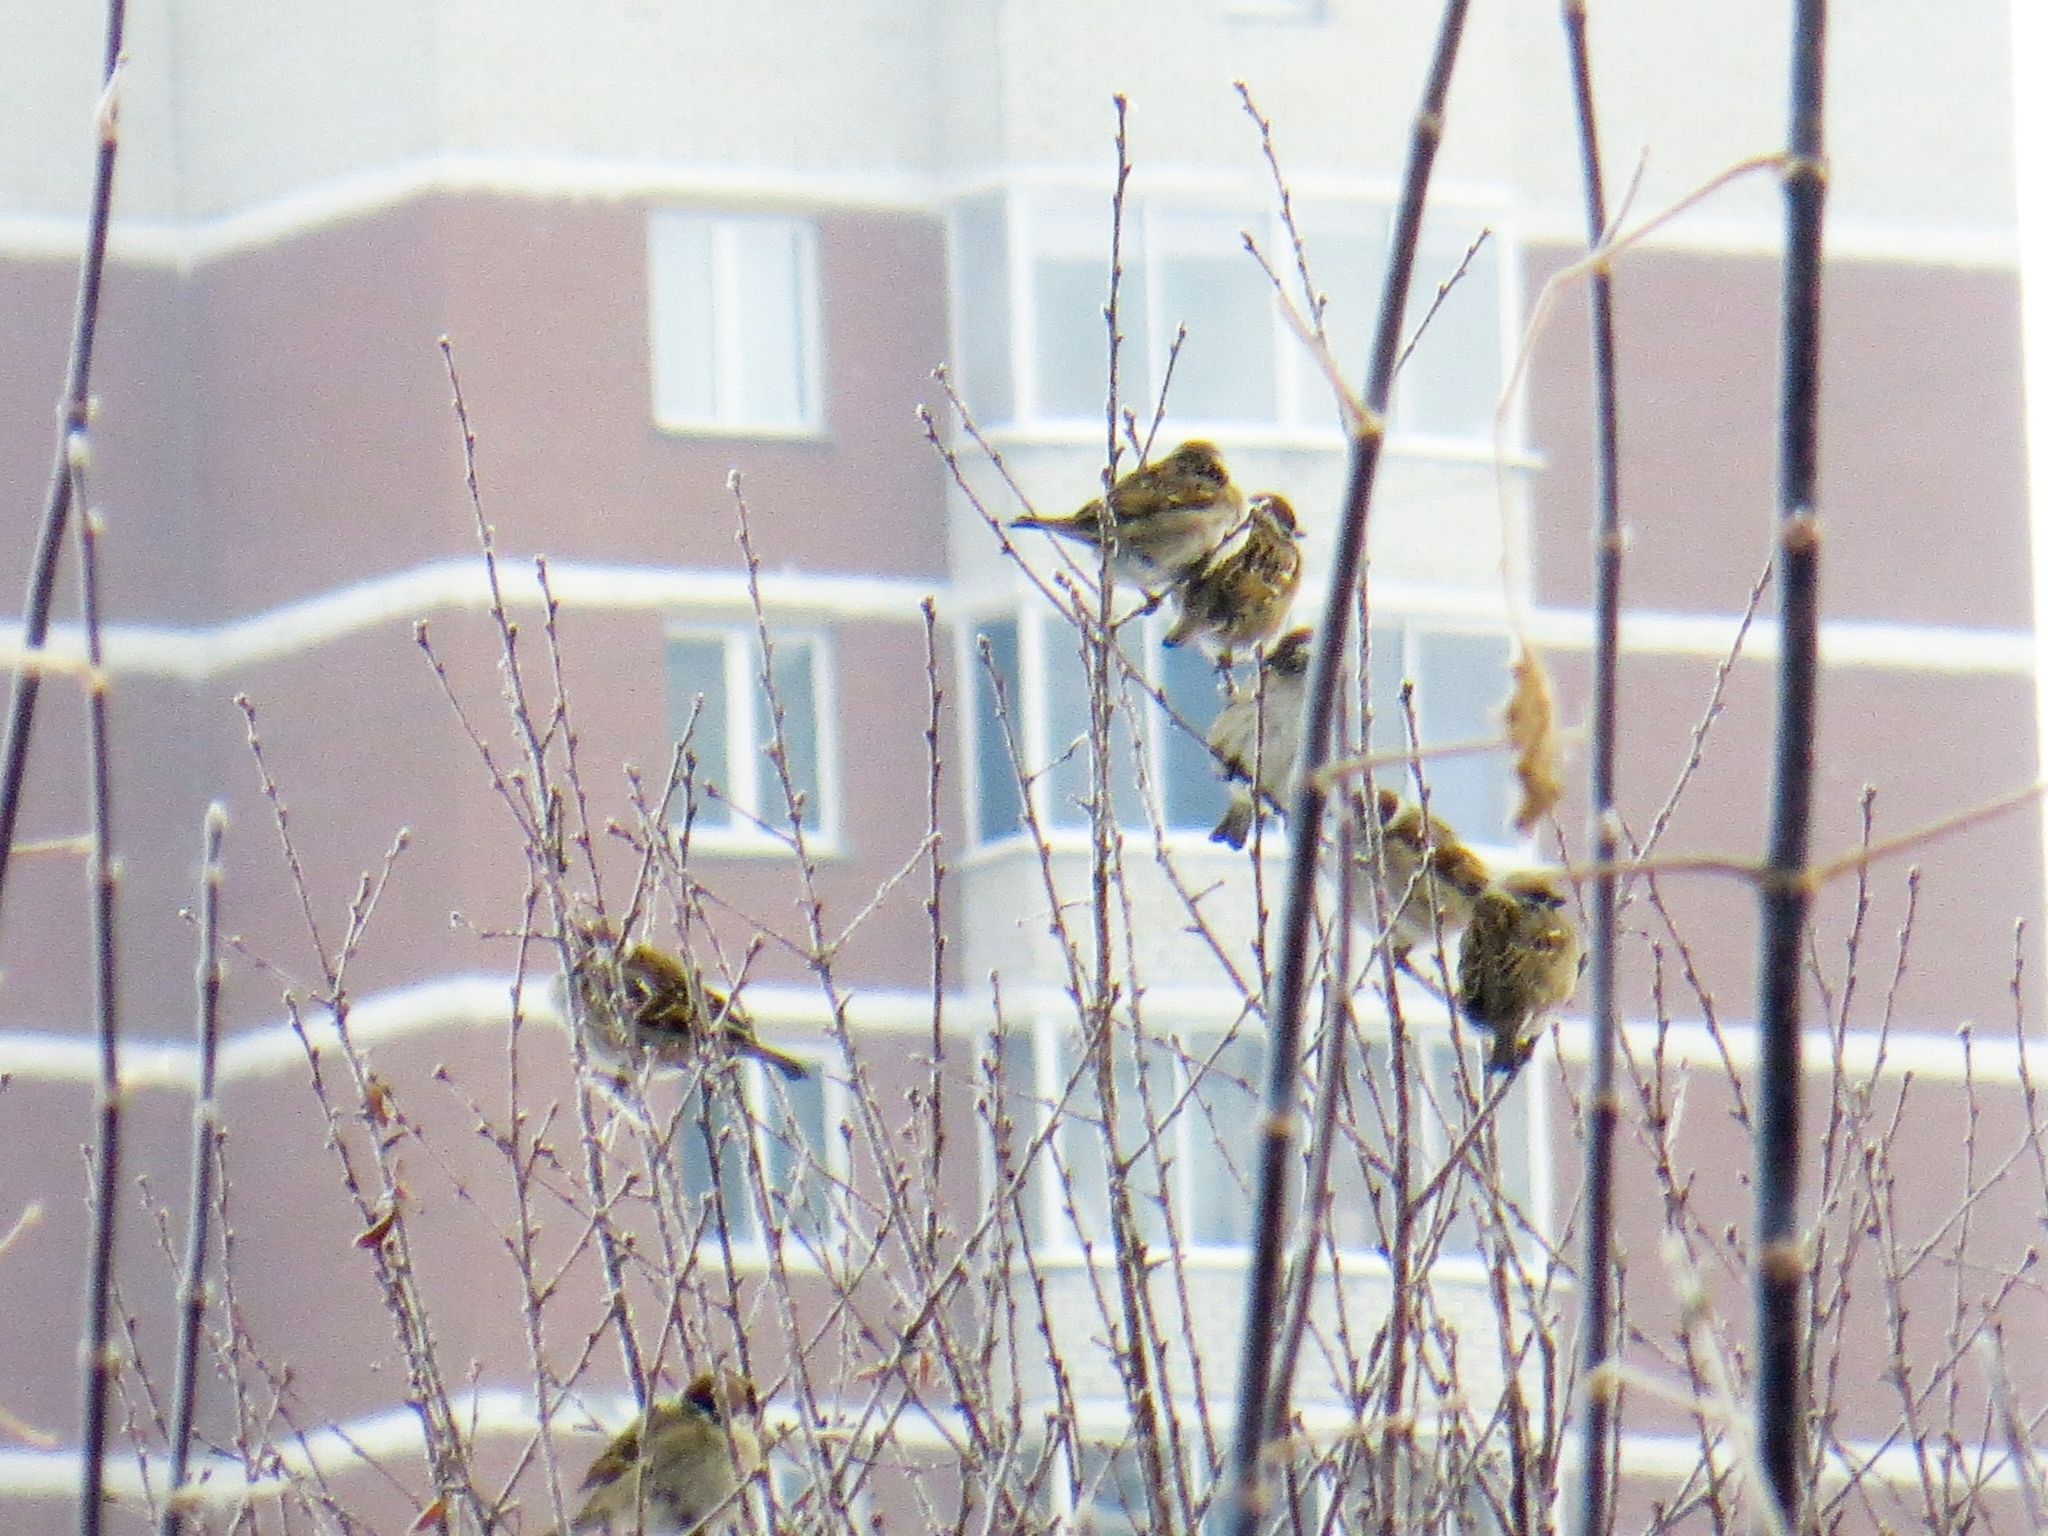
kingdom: Animalia
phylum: Chordata
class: Aves
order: Passeriformes
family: Passeridae
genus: Passer
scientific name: Passer montanus
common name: Eurasian tree sparrow
